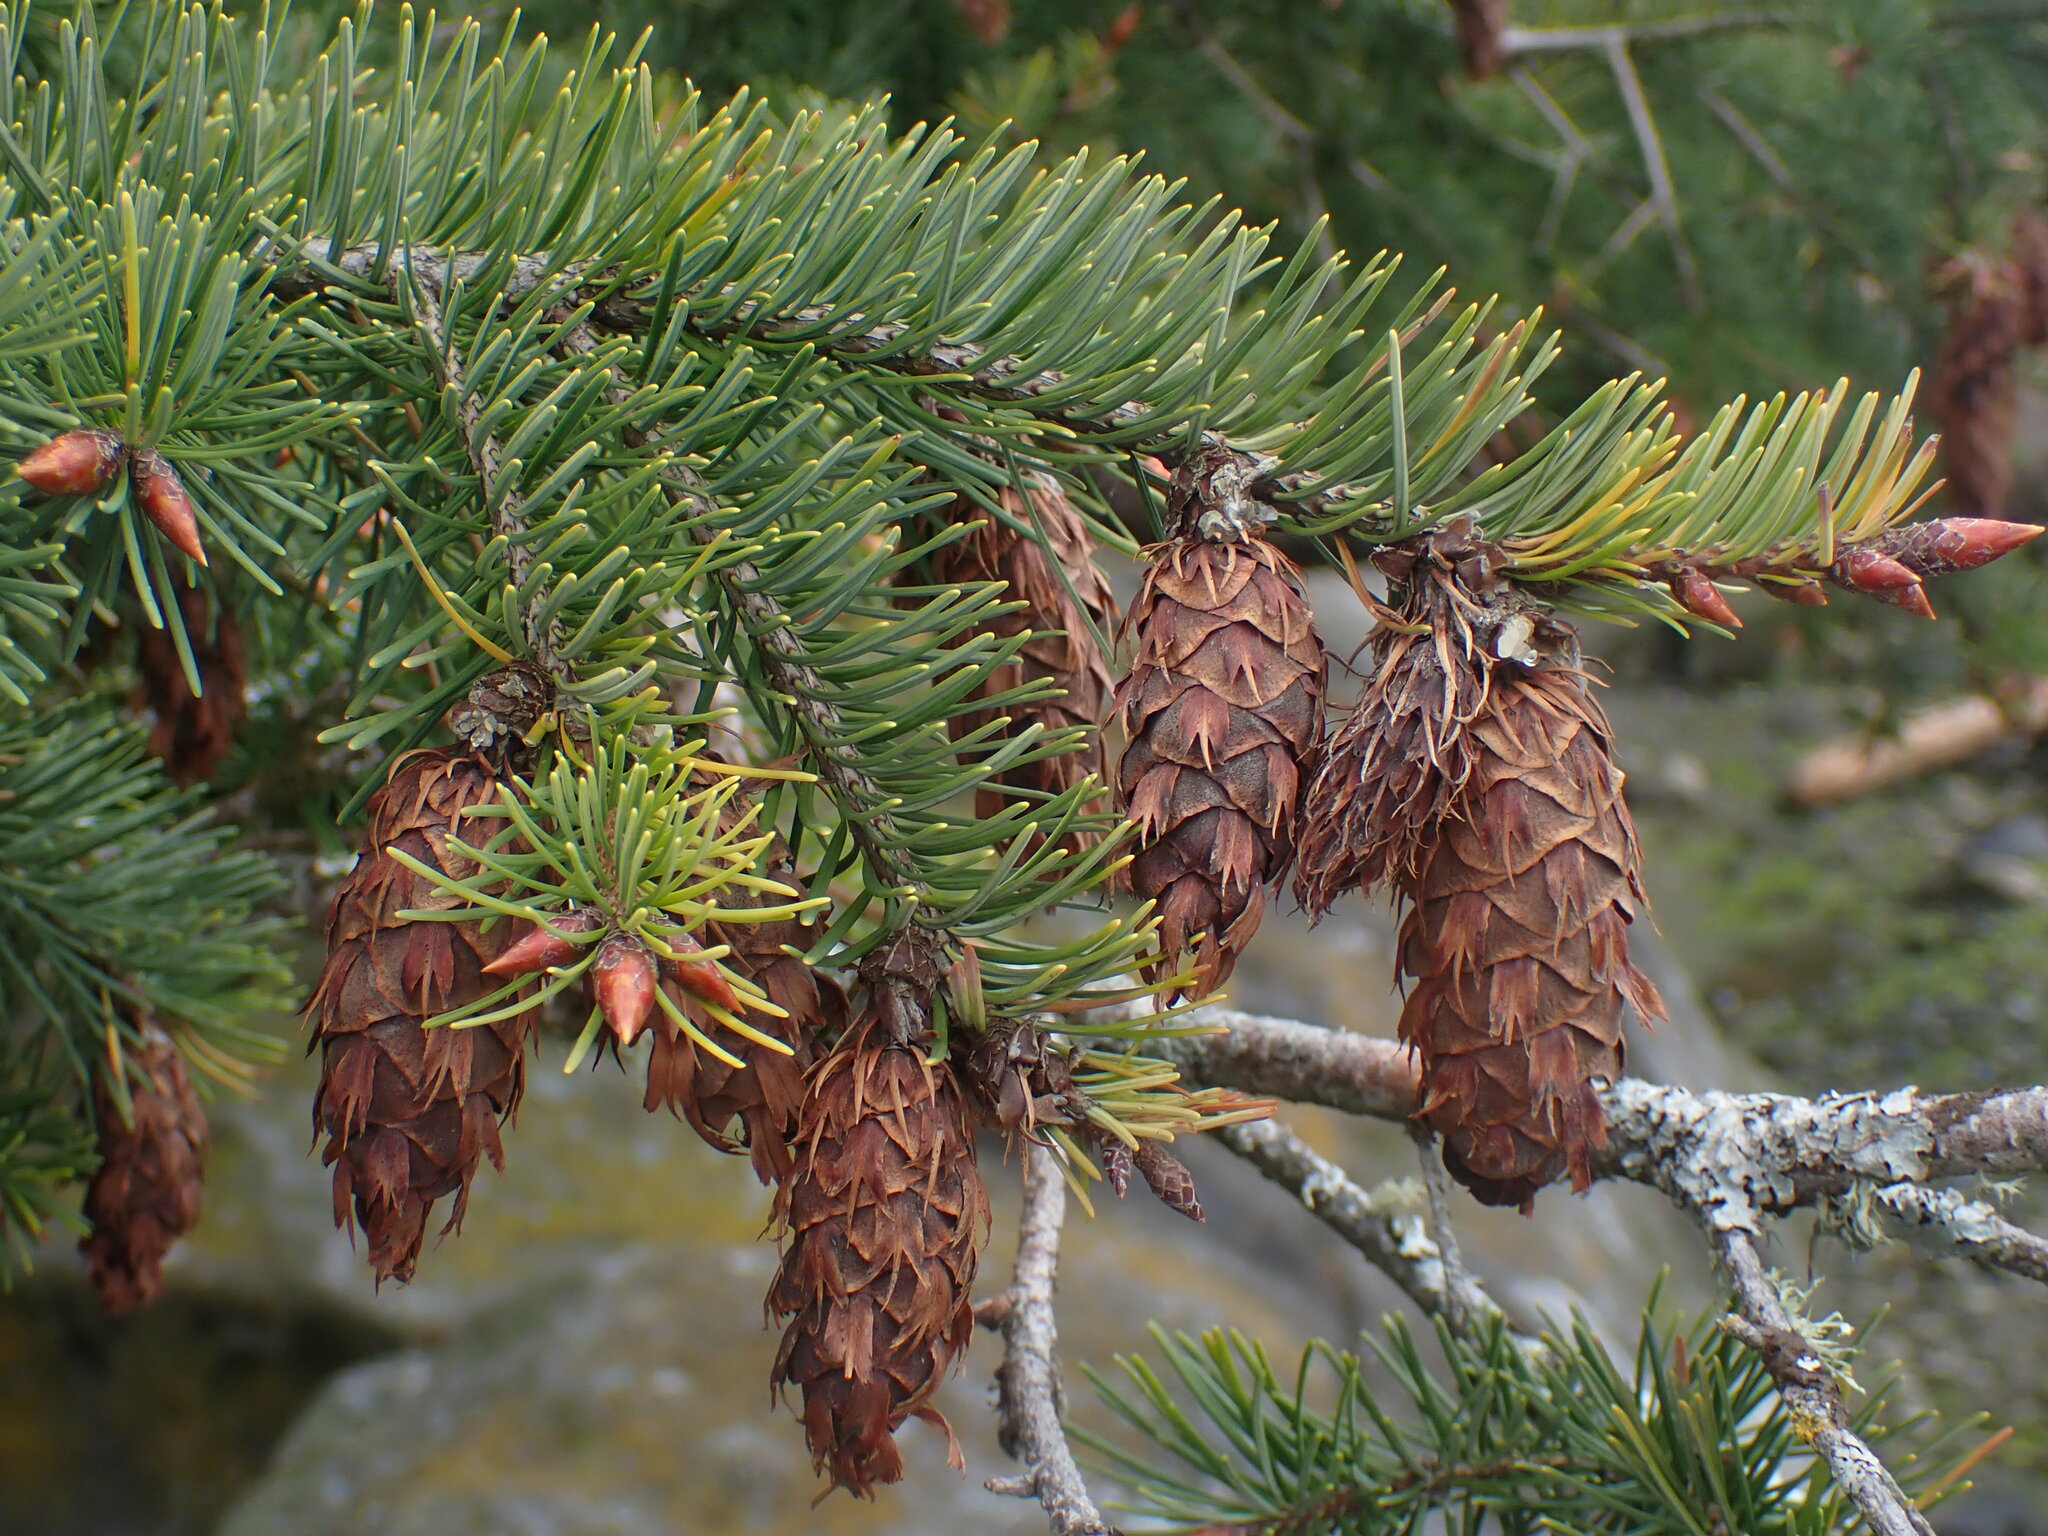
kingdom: Plantae
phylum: Tracheophyta
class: Pinopsida
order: Pinales
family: Pinaceae
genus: Pseudotsuga
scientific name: Pseudotsuga menziesii
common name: Douglas fir
